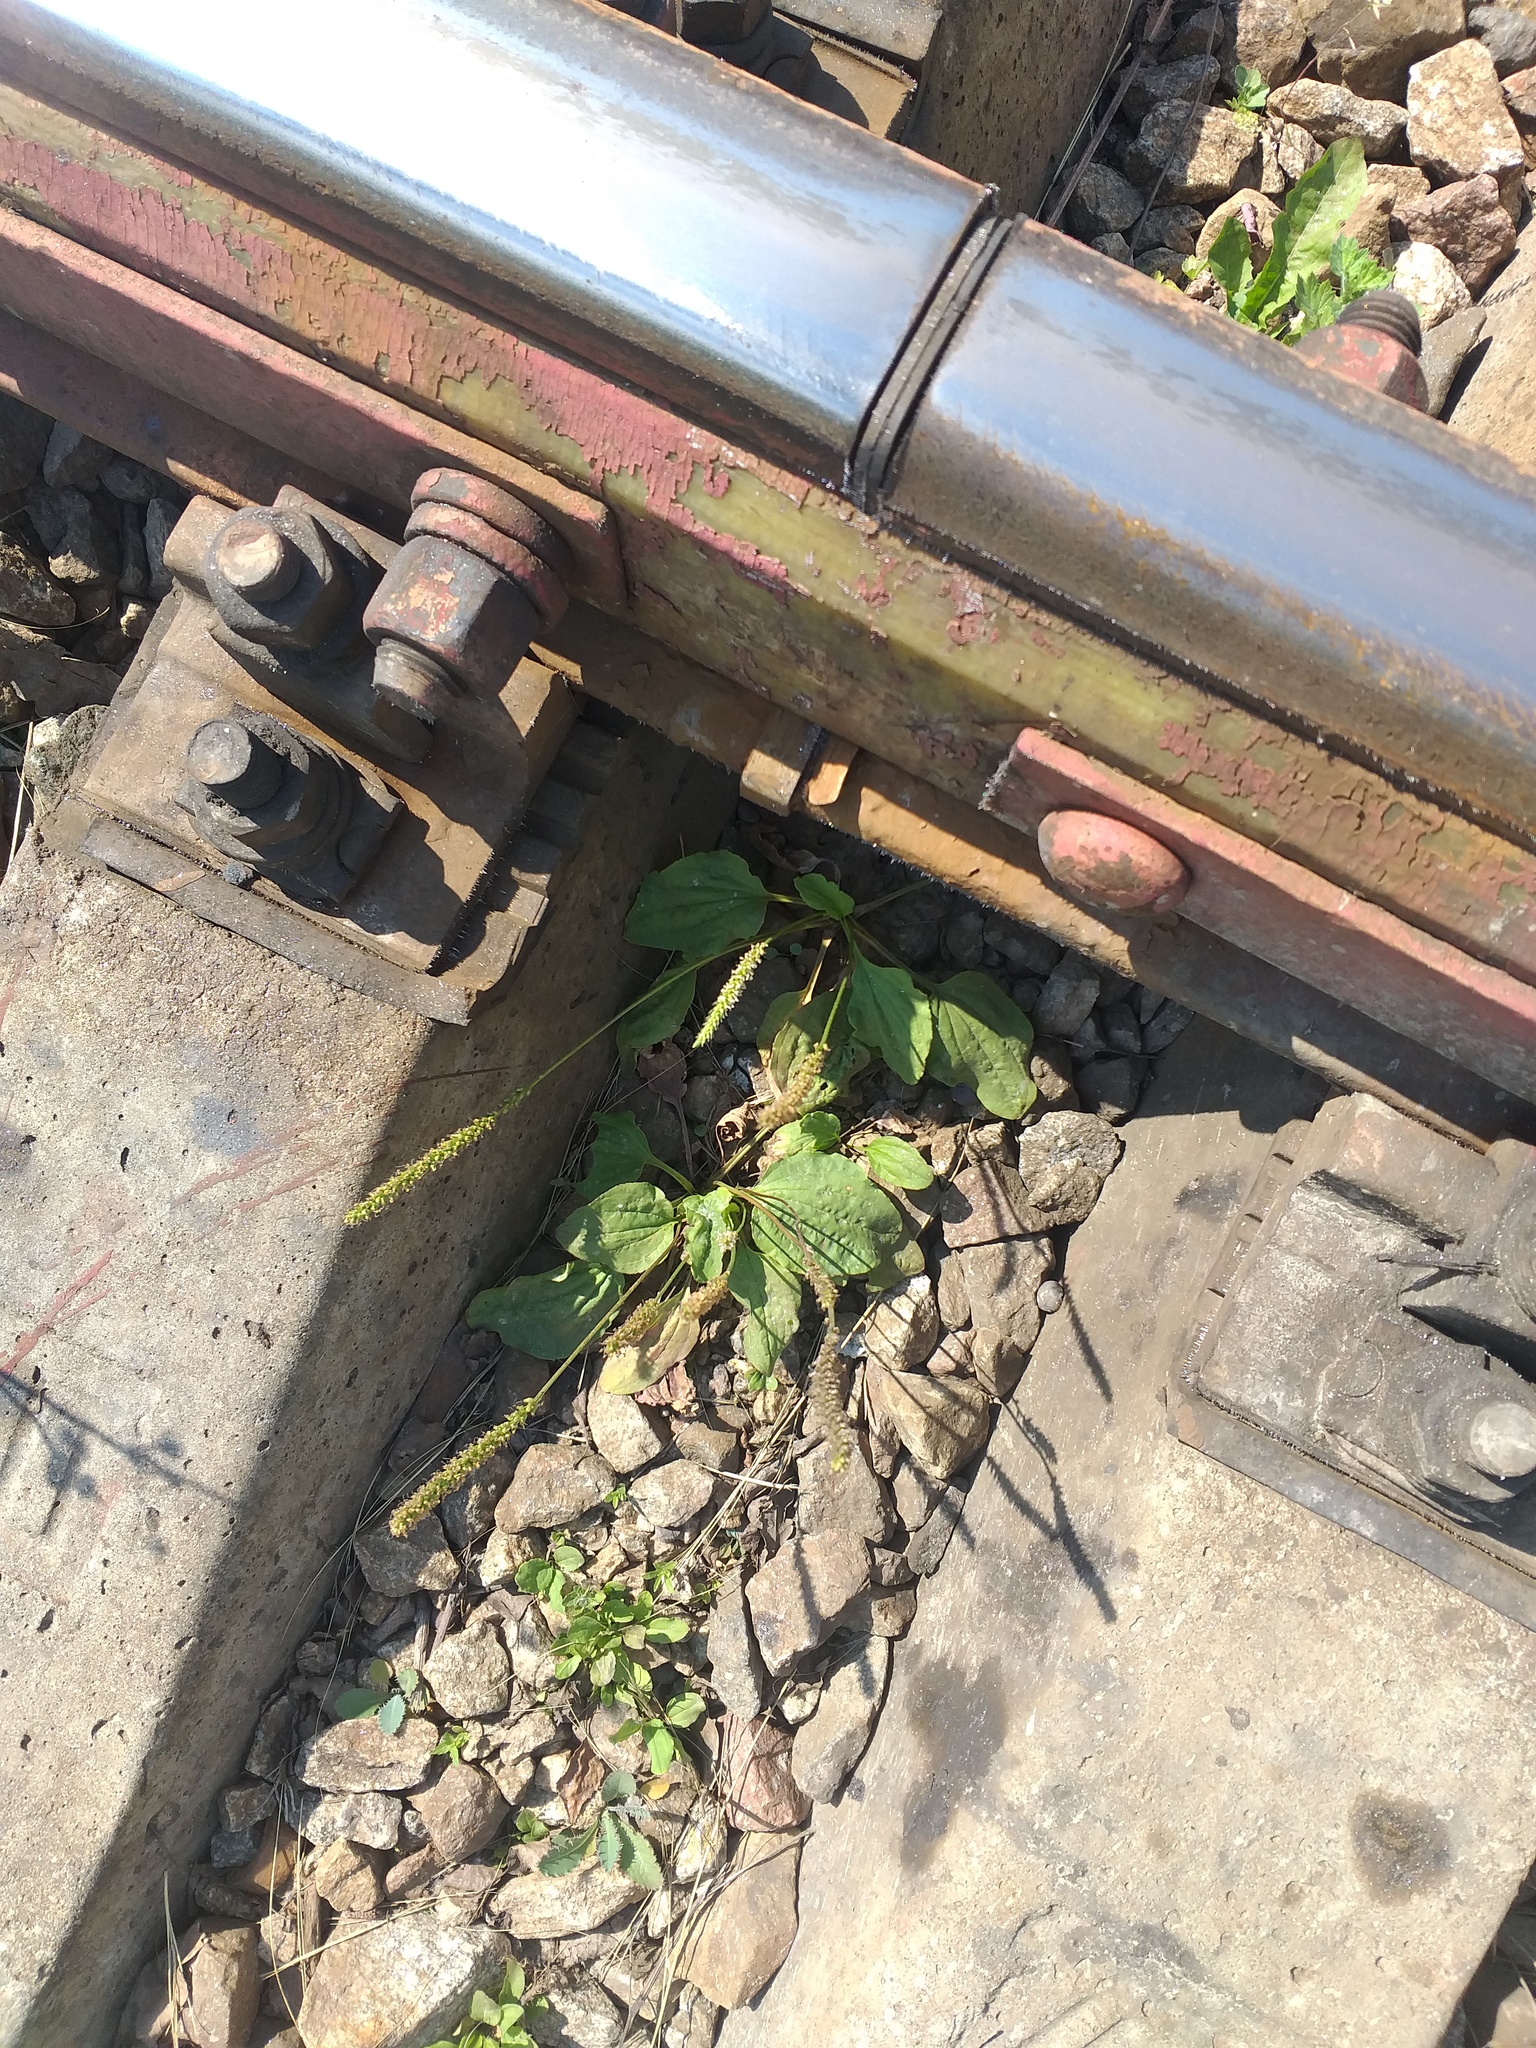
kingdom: Plantae
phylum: Tracheophyta
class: Magnoliopsida
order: Lamiales
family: Plantaginaceae
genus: Plantago
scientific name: Plantago major
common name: Common plantain
